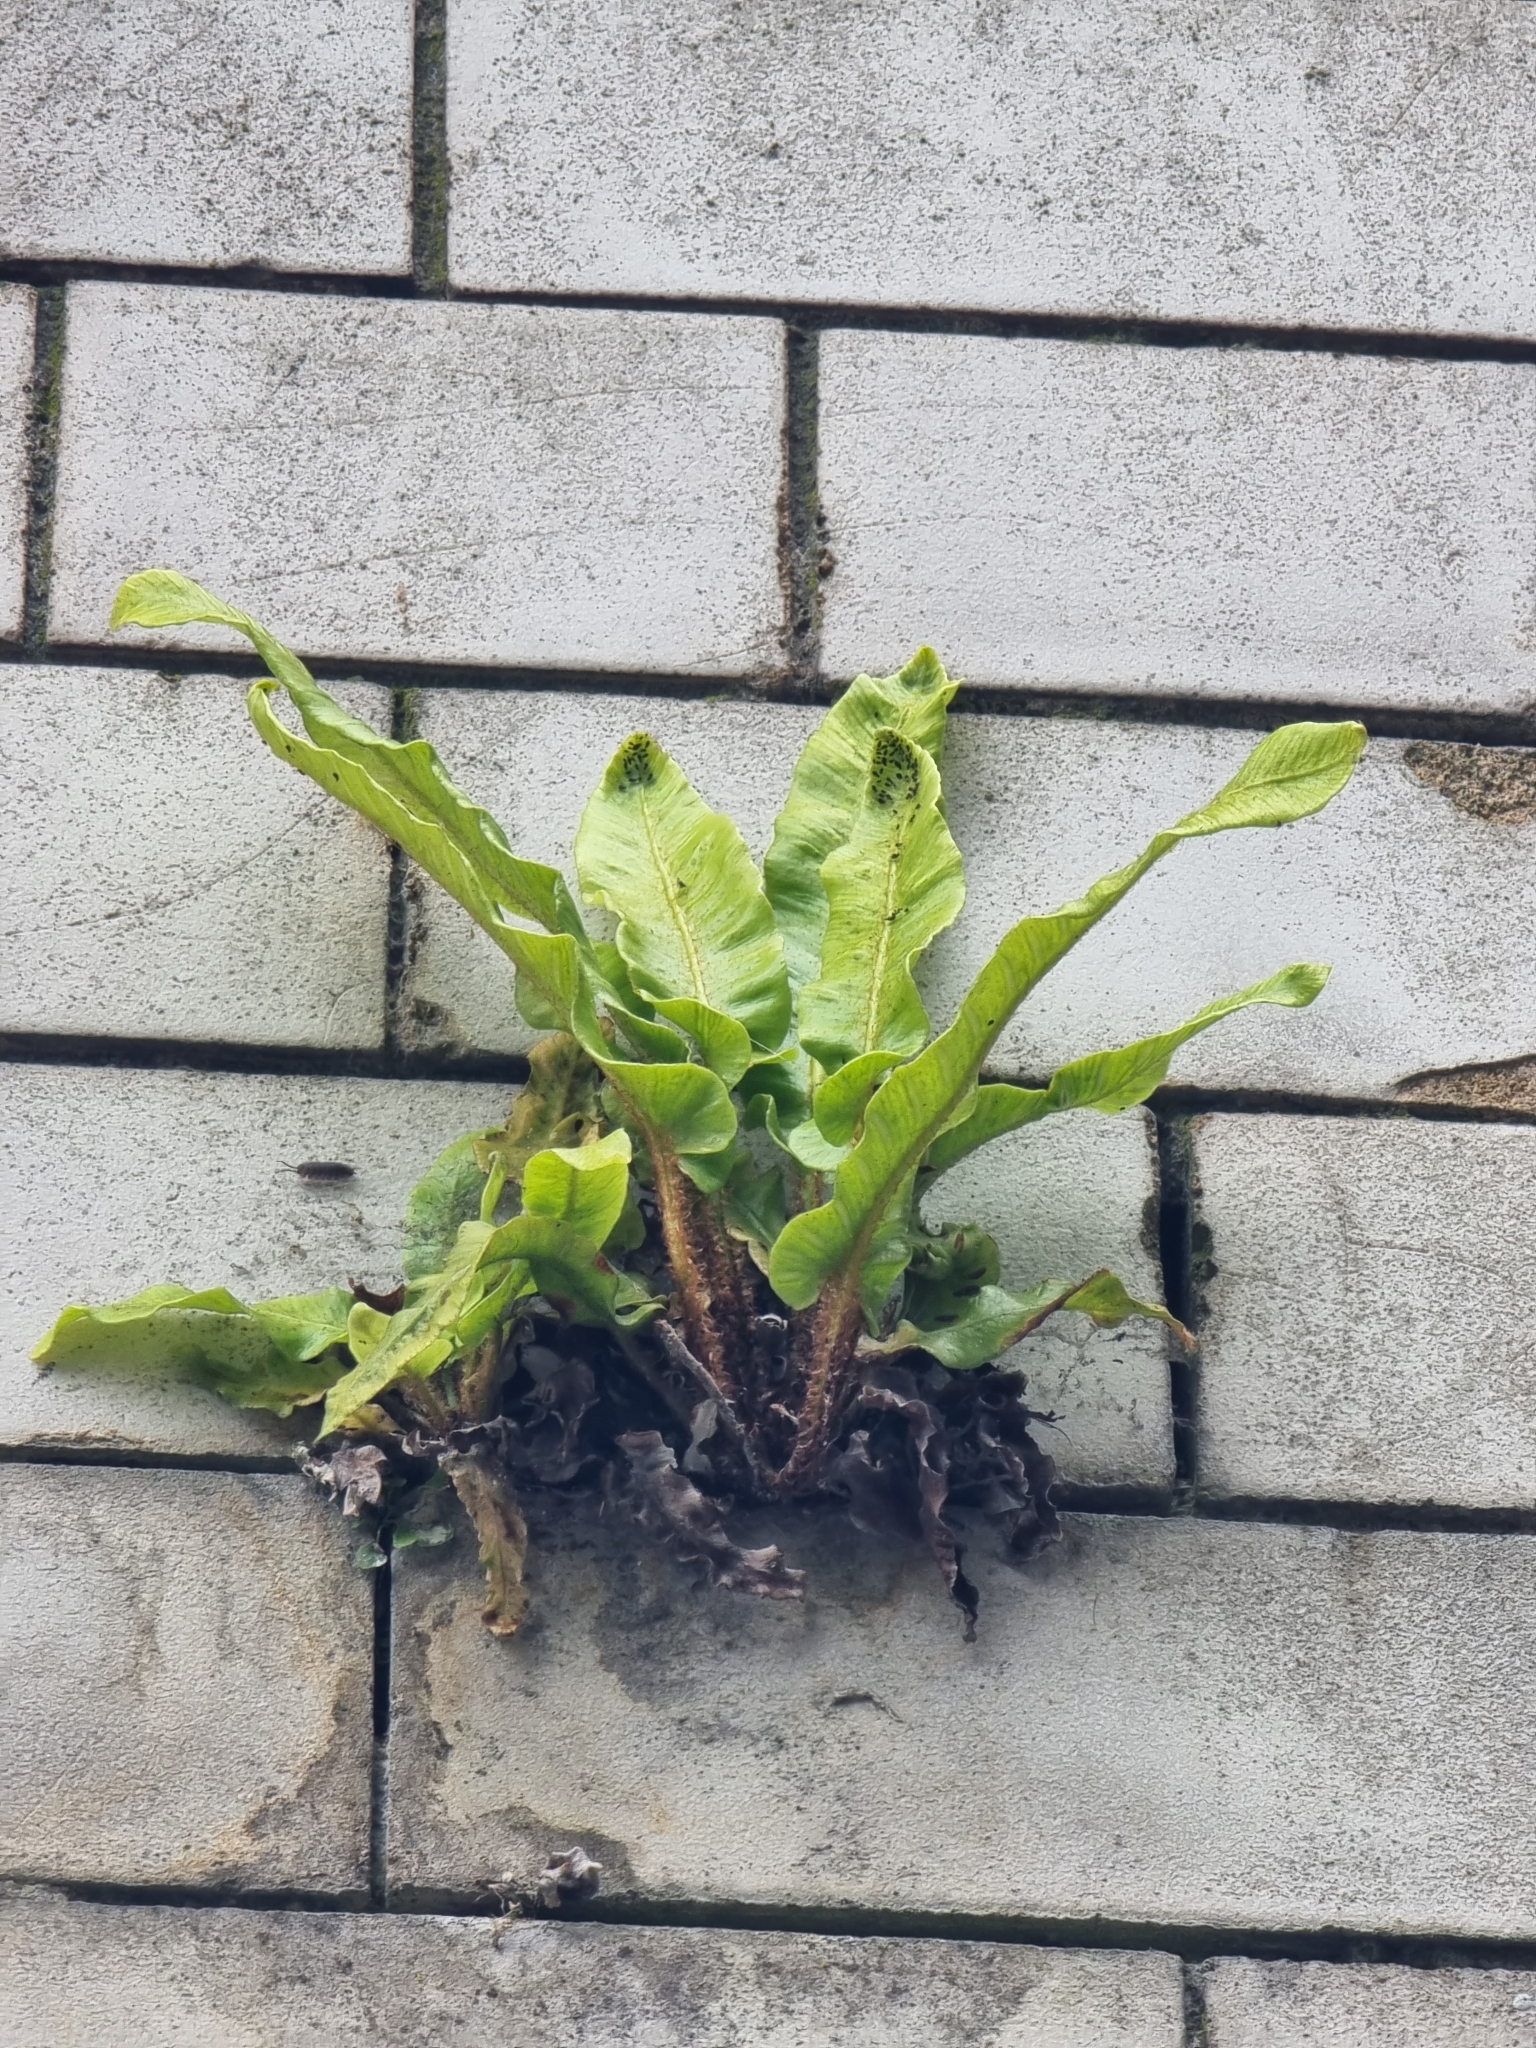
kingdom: Plantae
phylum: Tracheophyta
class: Polypodiopsida
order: Polypodiales
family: Aspleniaceae
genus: Asplenium
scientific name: Asplenium scolopendrium
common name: Hart's-tongue fern
